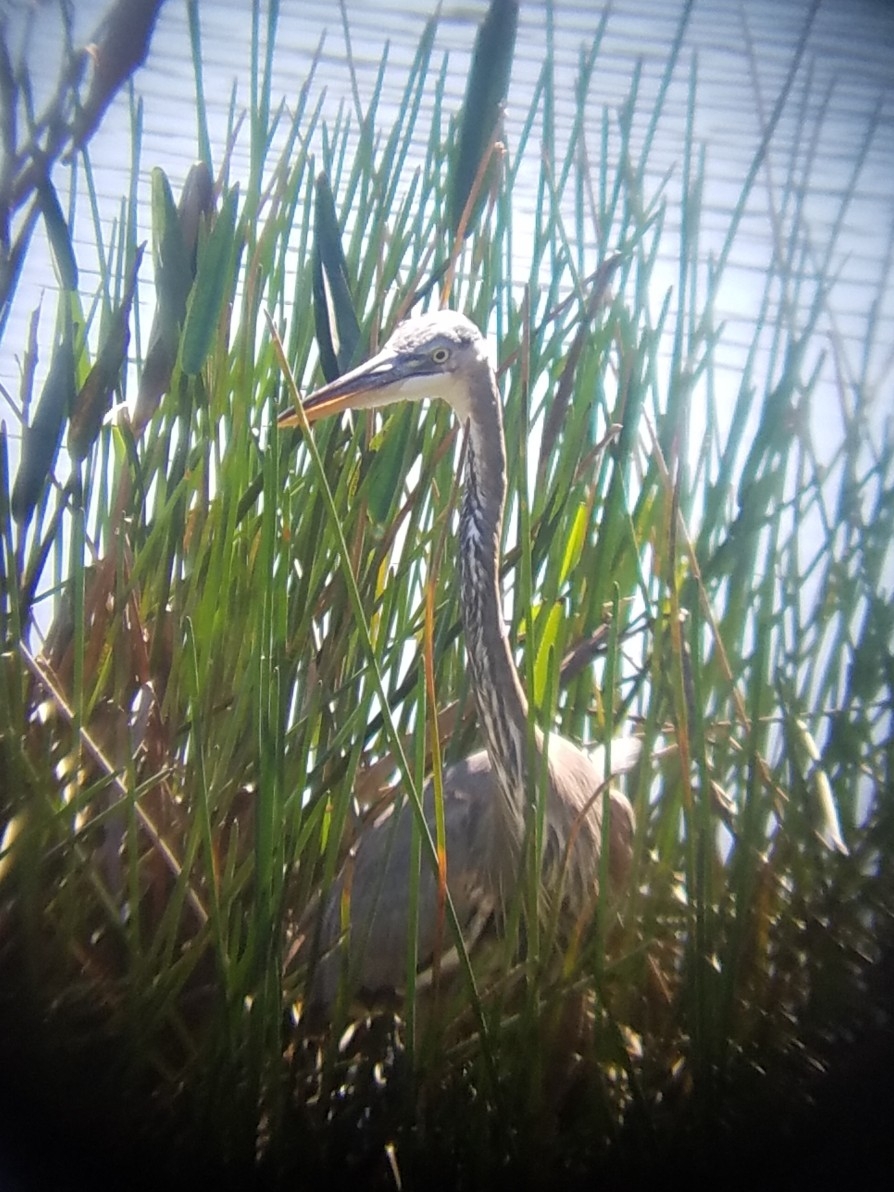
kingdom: Animalia
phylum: Chordata
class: Aves
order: Pelecaniformes
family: Ardeidae
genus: Ardea
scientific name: Ardea herodias
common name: Great blue heron
